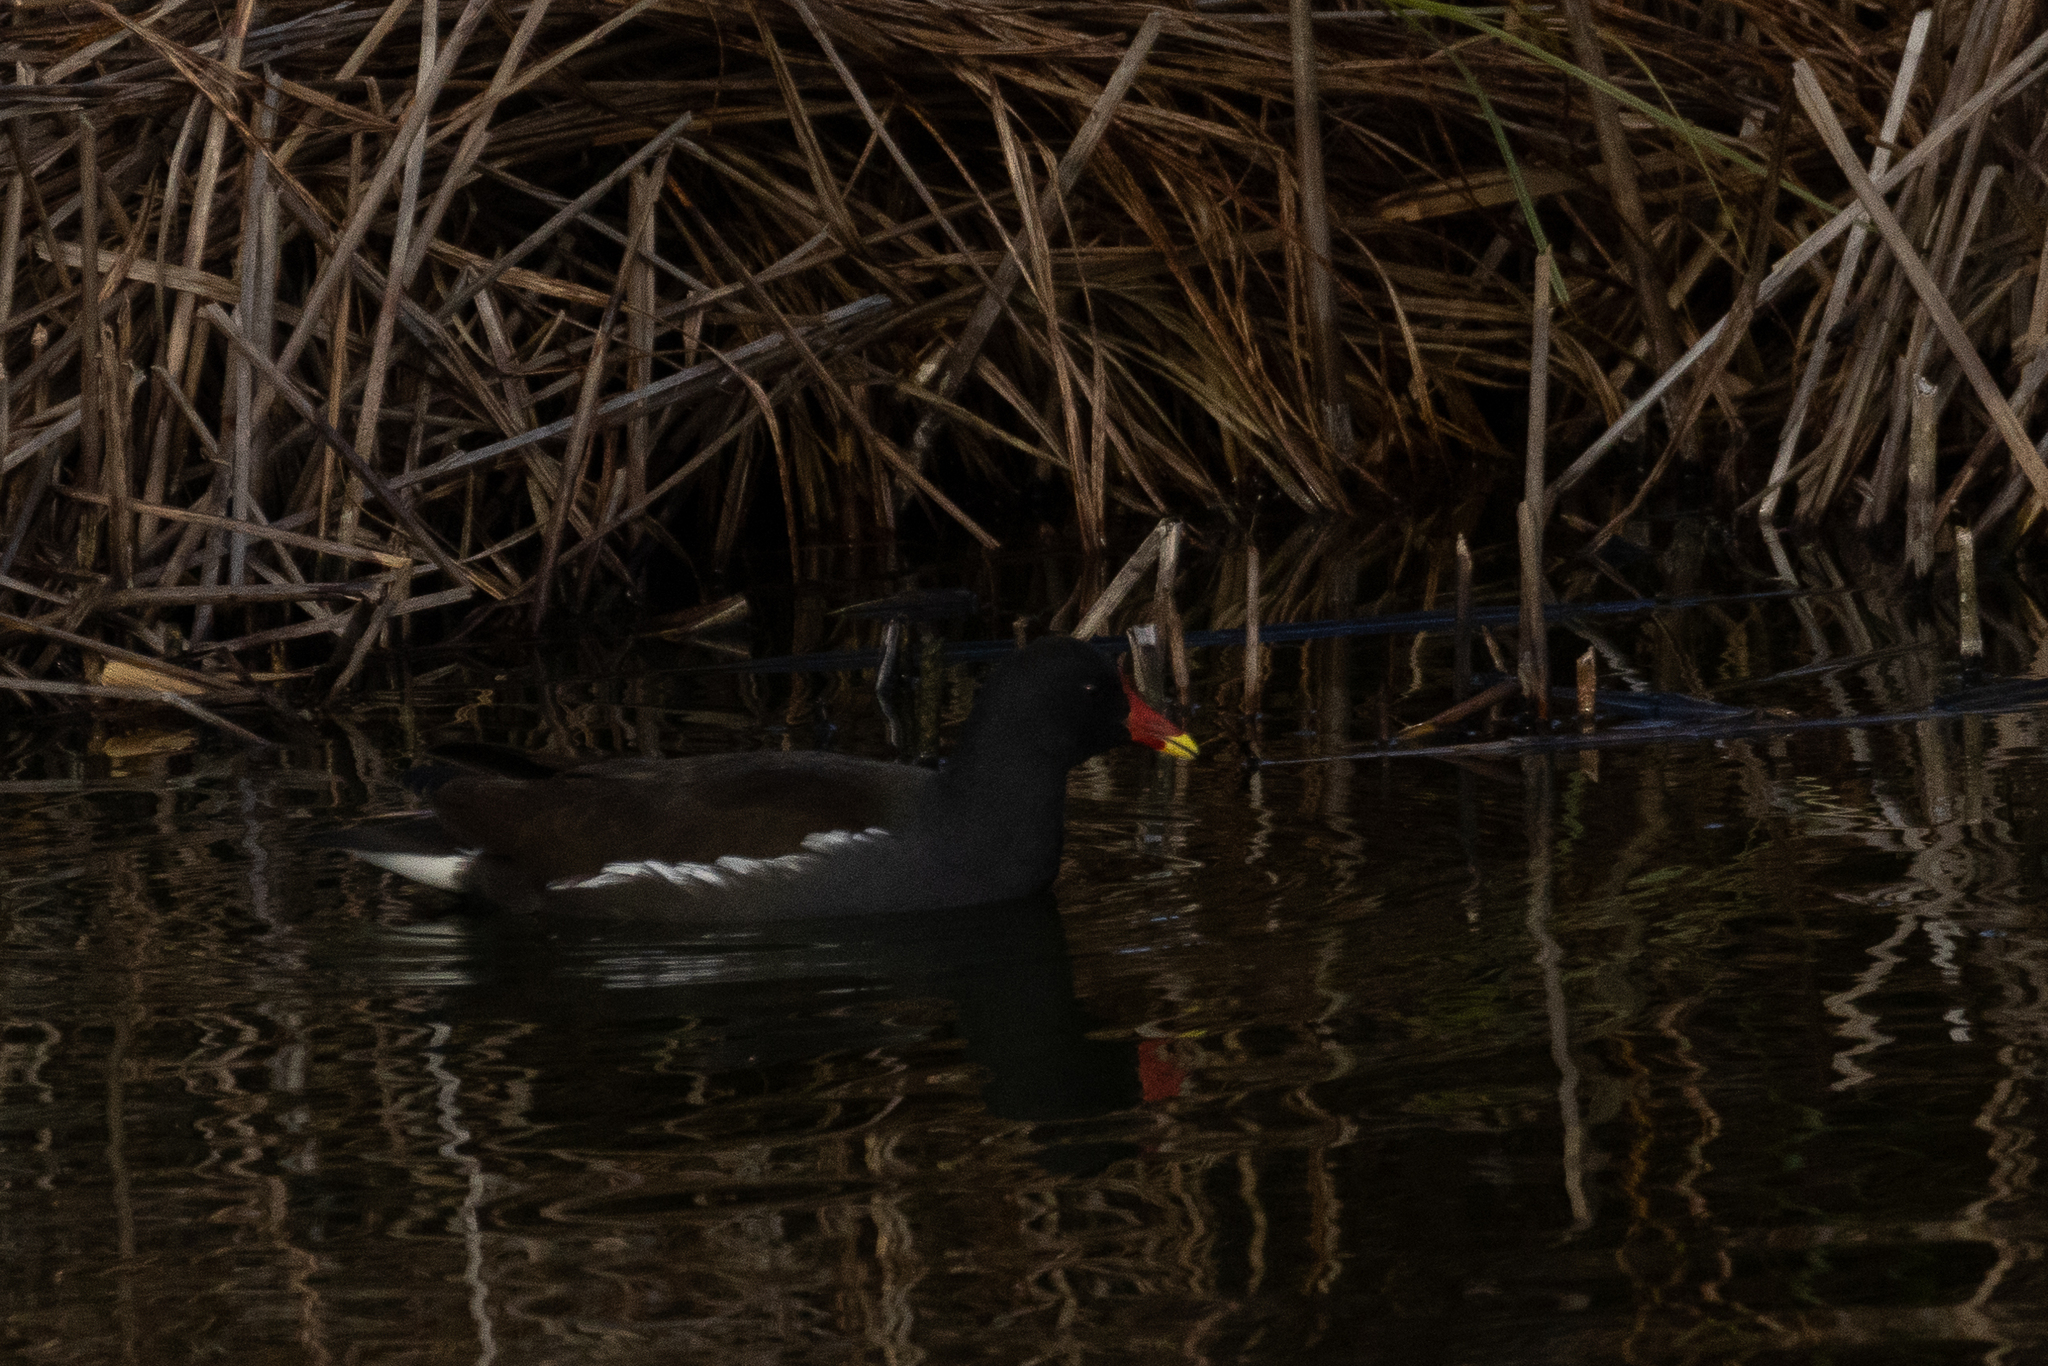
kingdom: Animalia
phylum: Chordata
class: Aves
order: Gruiformes
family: Rallidae
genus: Gallinula
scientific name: Gallinula chloropus
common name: Common moorhen
